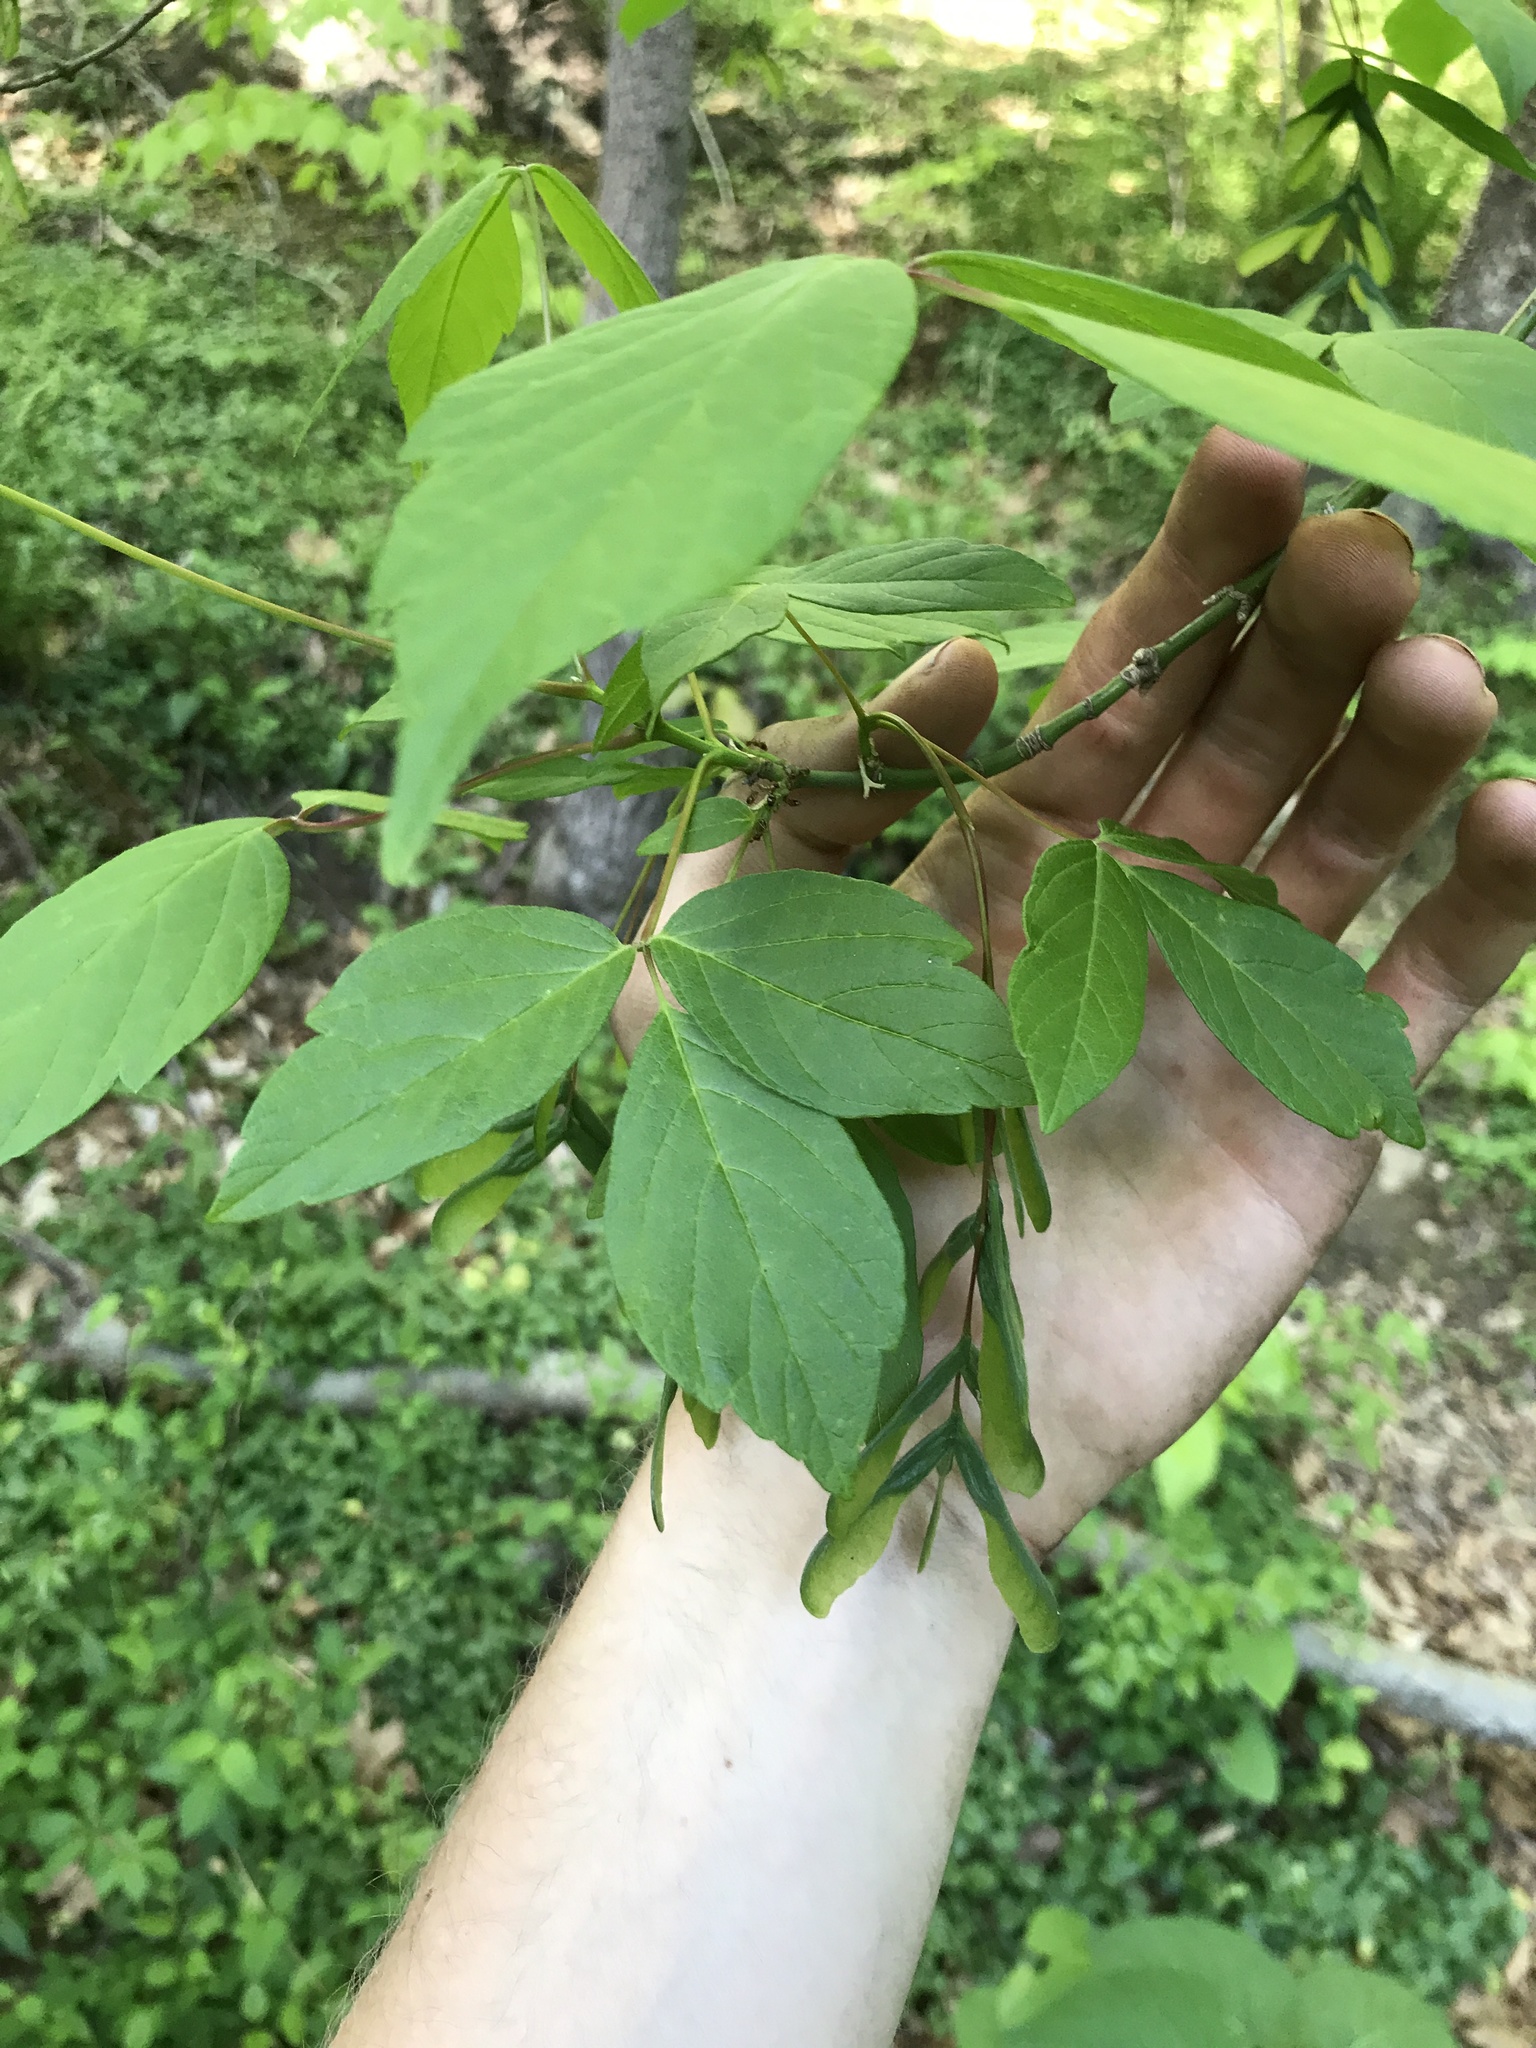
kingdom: Plantae
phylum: Tracheophyta
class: Magnoliopsida
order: Sapindales
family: Sapindaceae
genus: Acer
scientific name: Acer negundo
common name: Ashleaf maple
